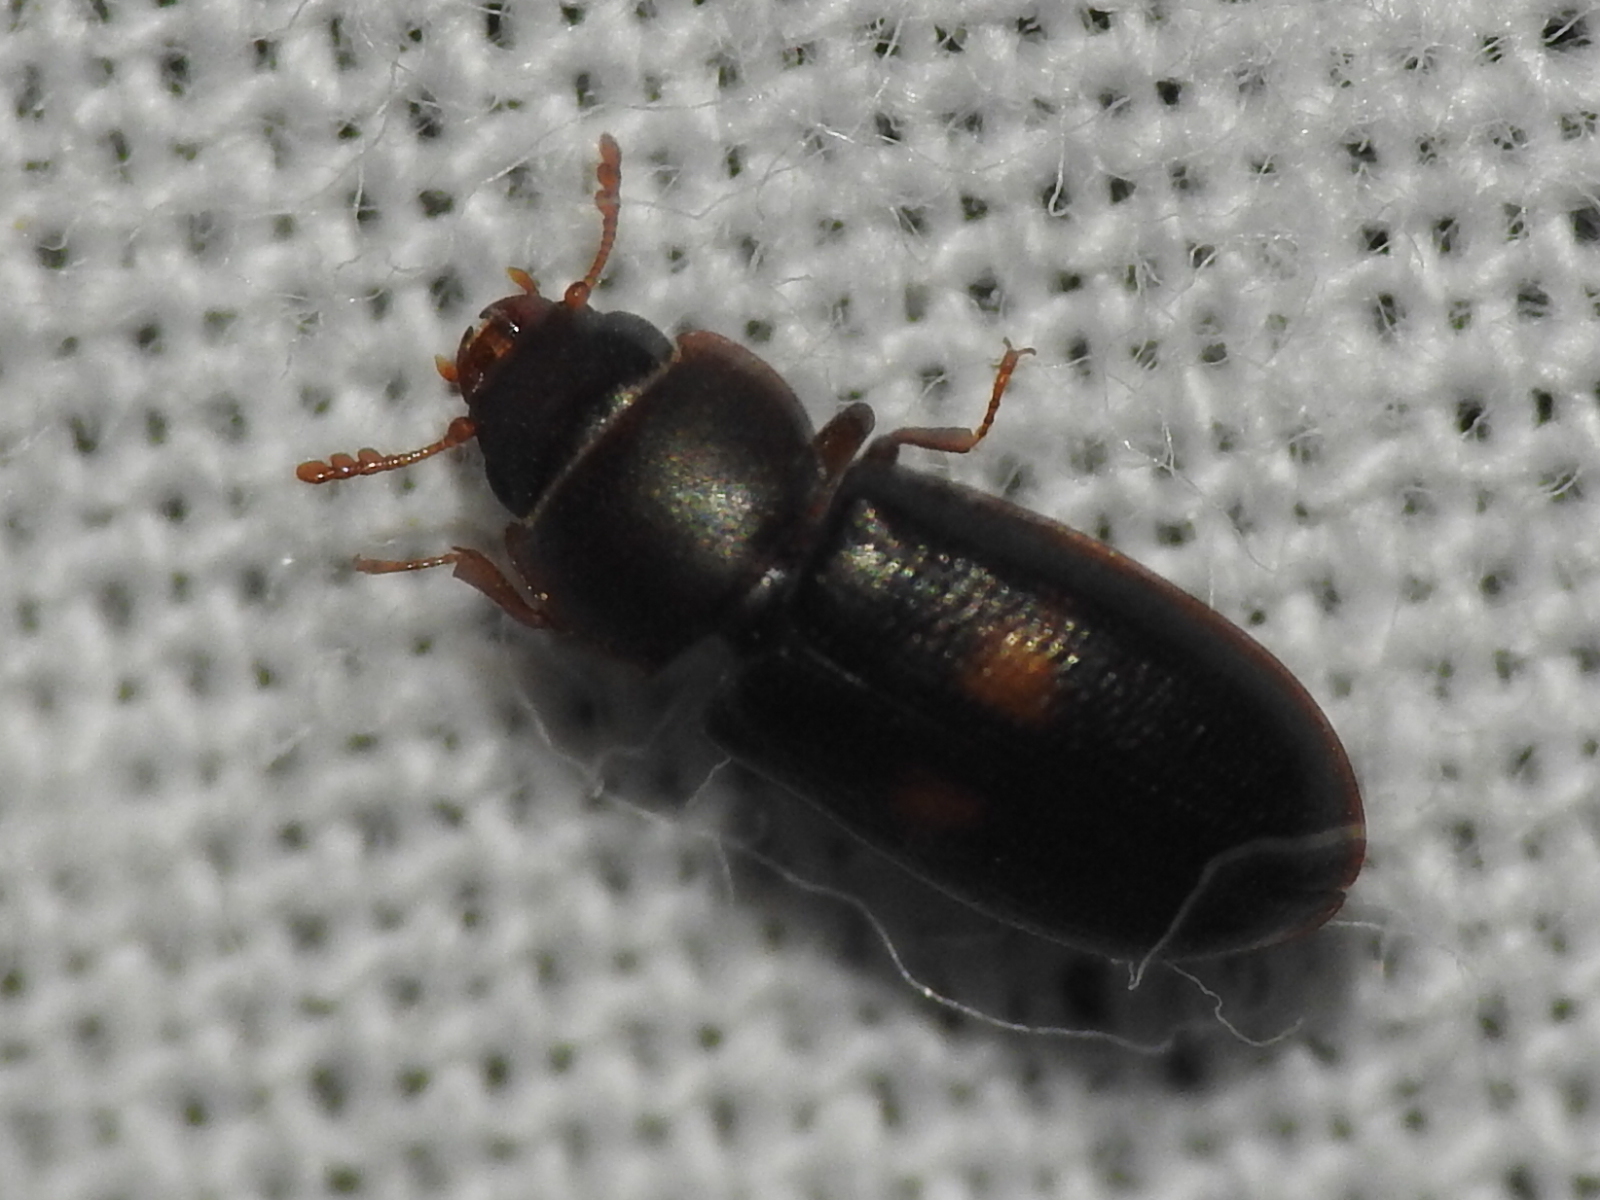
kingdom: Animalia
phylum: Arthropoda
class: Insecta
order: Coleoptera
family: Trogossitidae
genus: Tenebroides
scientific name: Tenebroides
